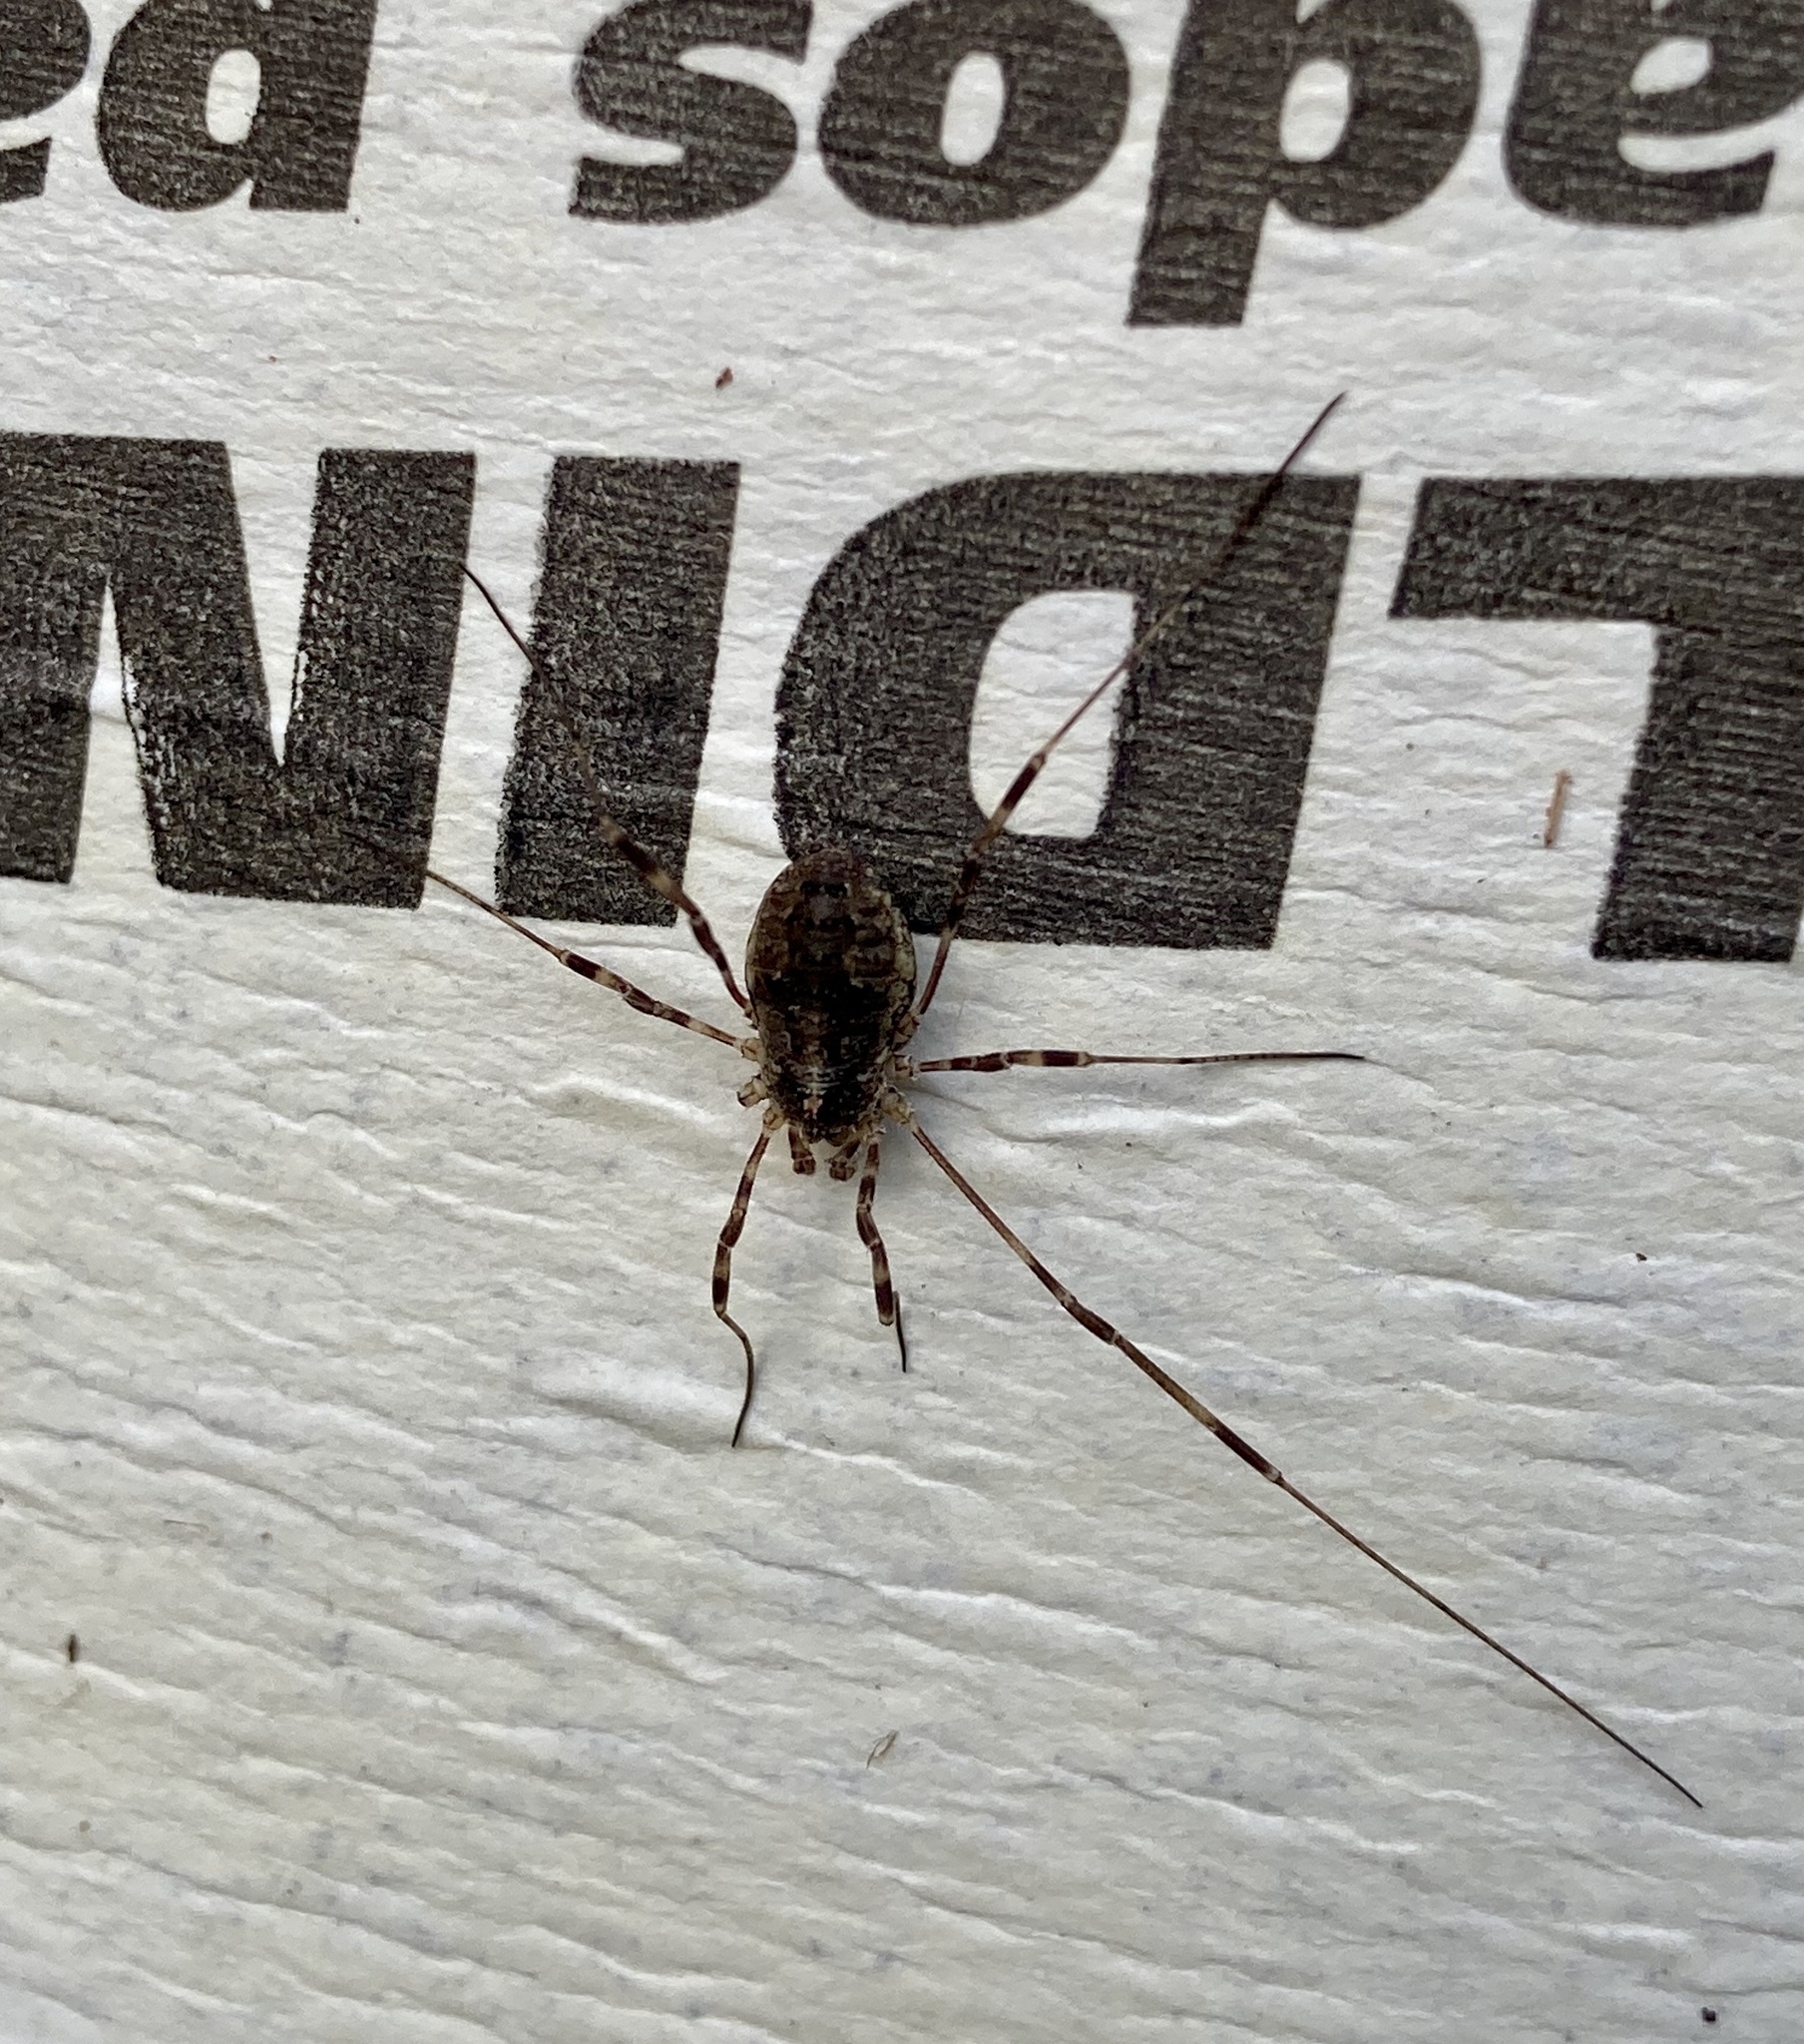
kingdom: Animalia
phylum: Arthropoda
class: Arachnida
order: Opiliones
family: Phalangiidae
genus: Odiellus
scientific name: Odiellus pictus
